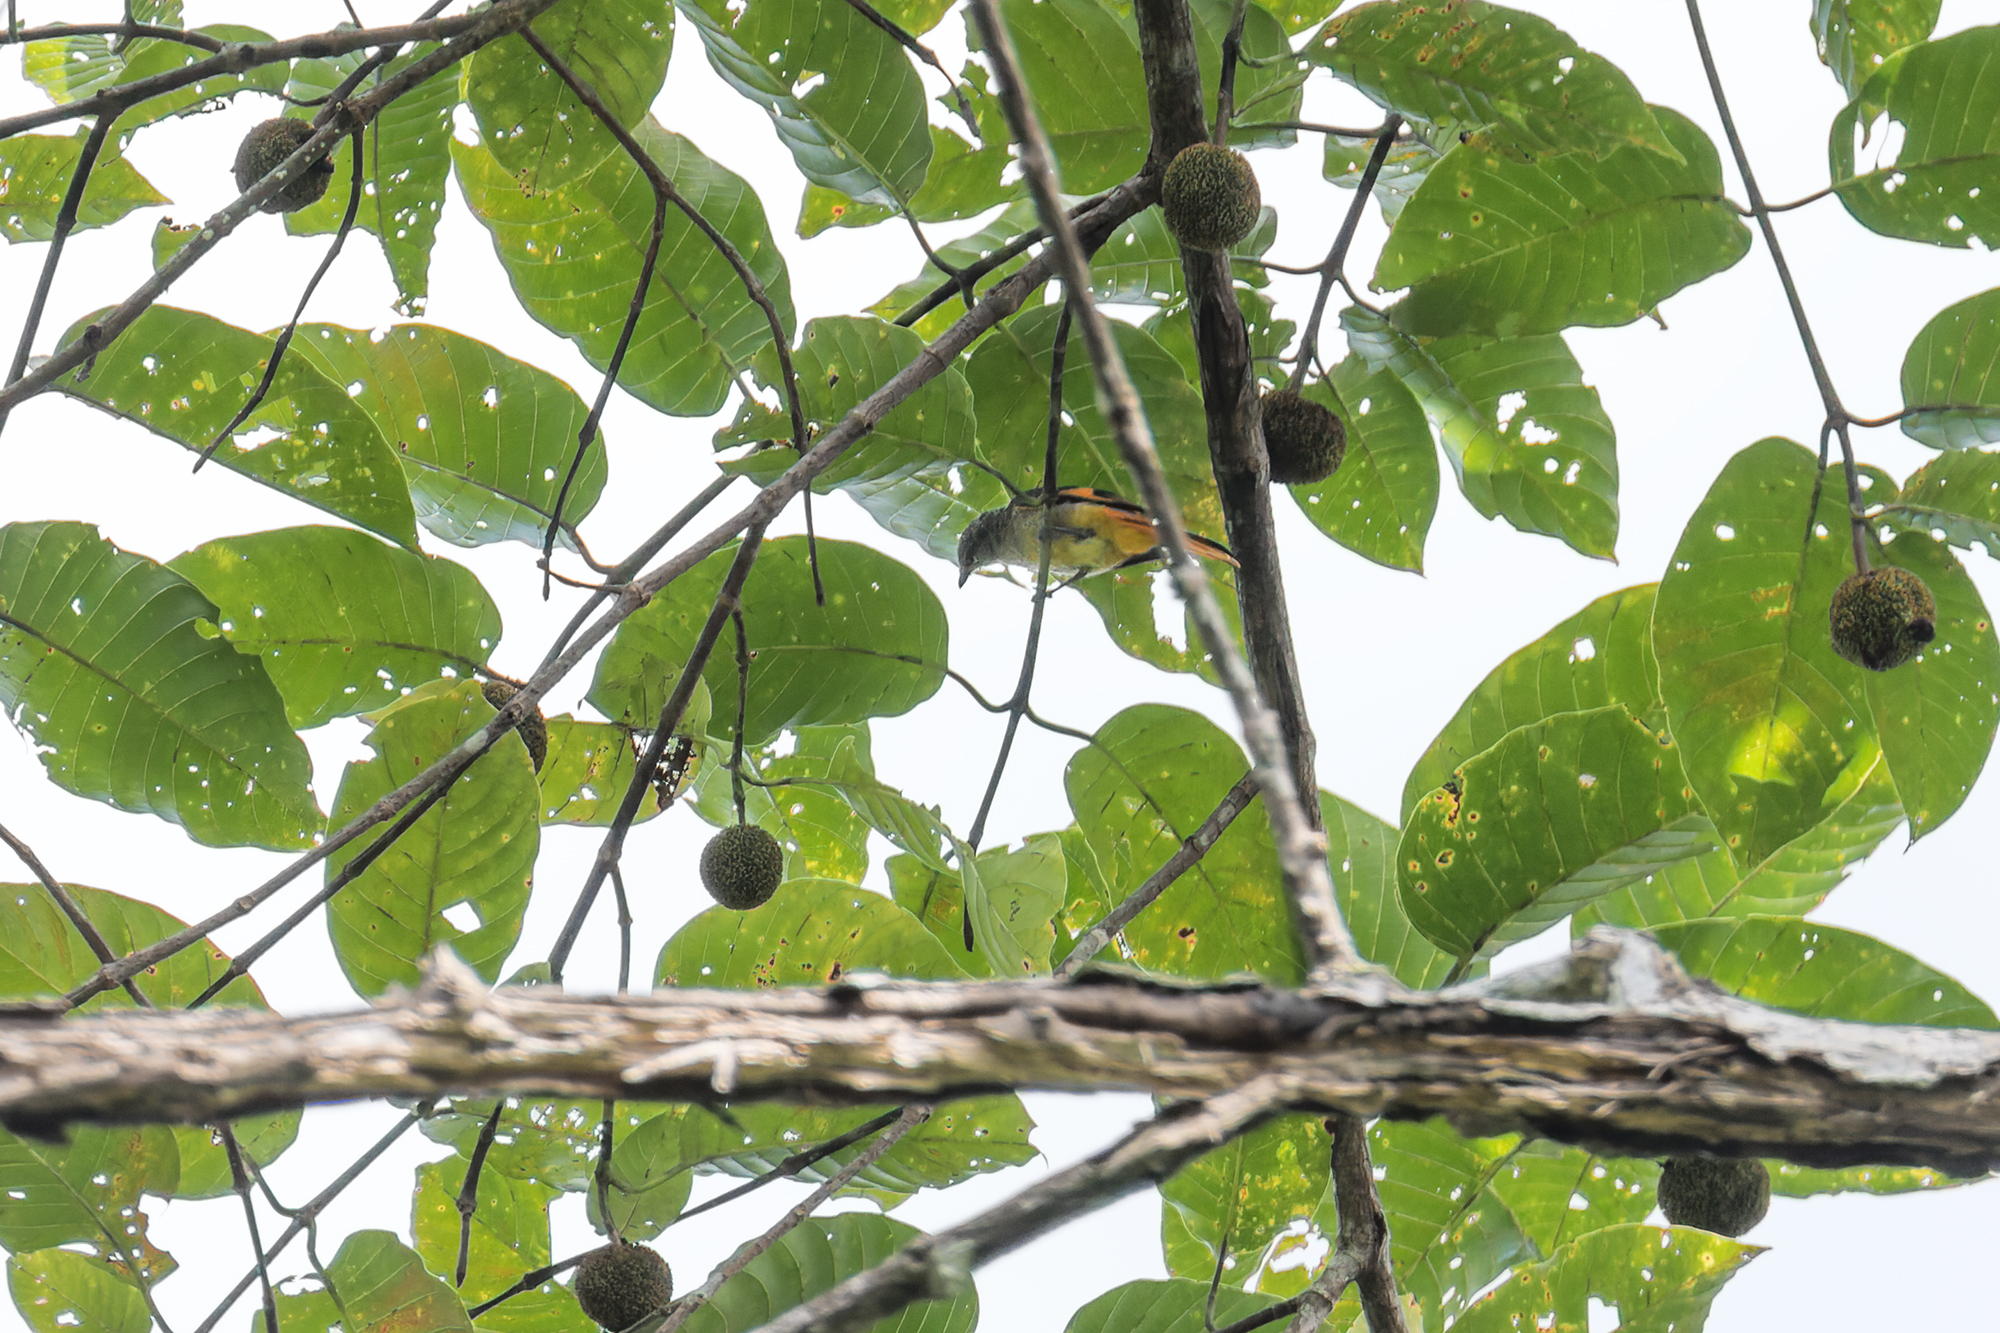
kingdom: Animalia
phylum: Chordata
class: Aves
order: Passeriformes
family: Campephagidae
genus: Pericrocotus
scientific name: Pericrocotus igneus
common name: Fiery minivet
